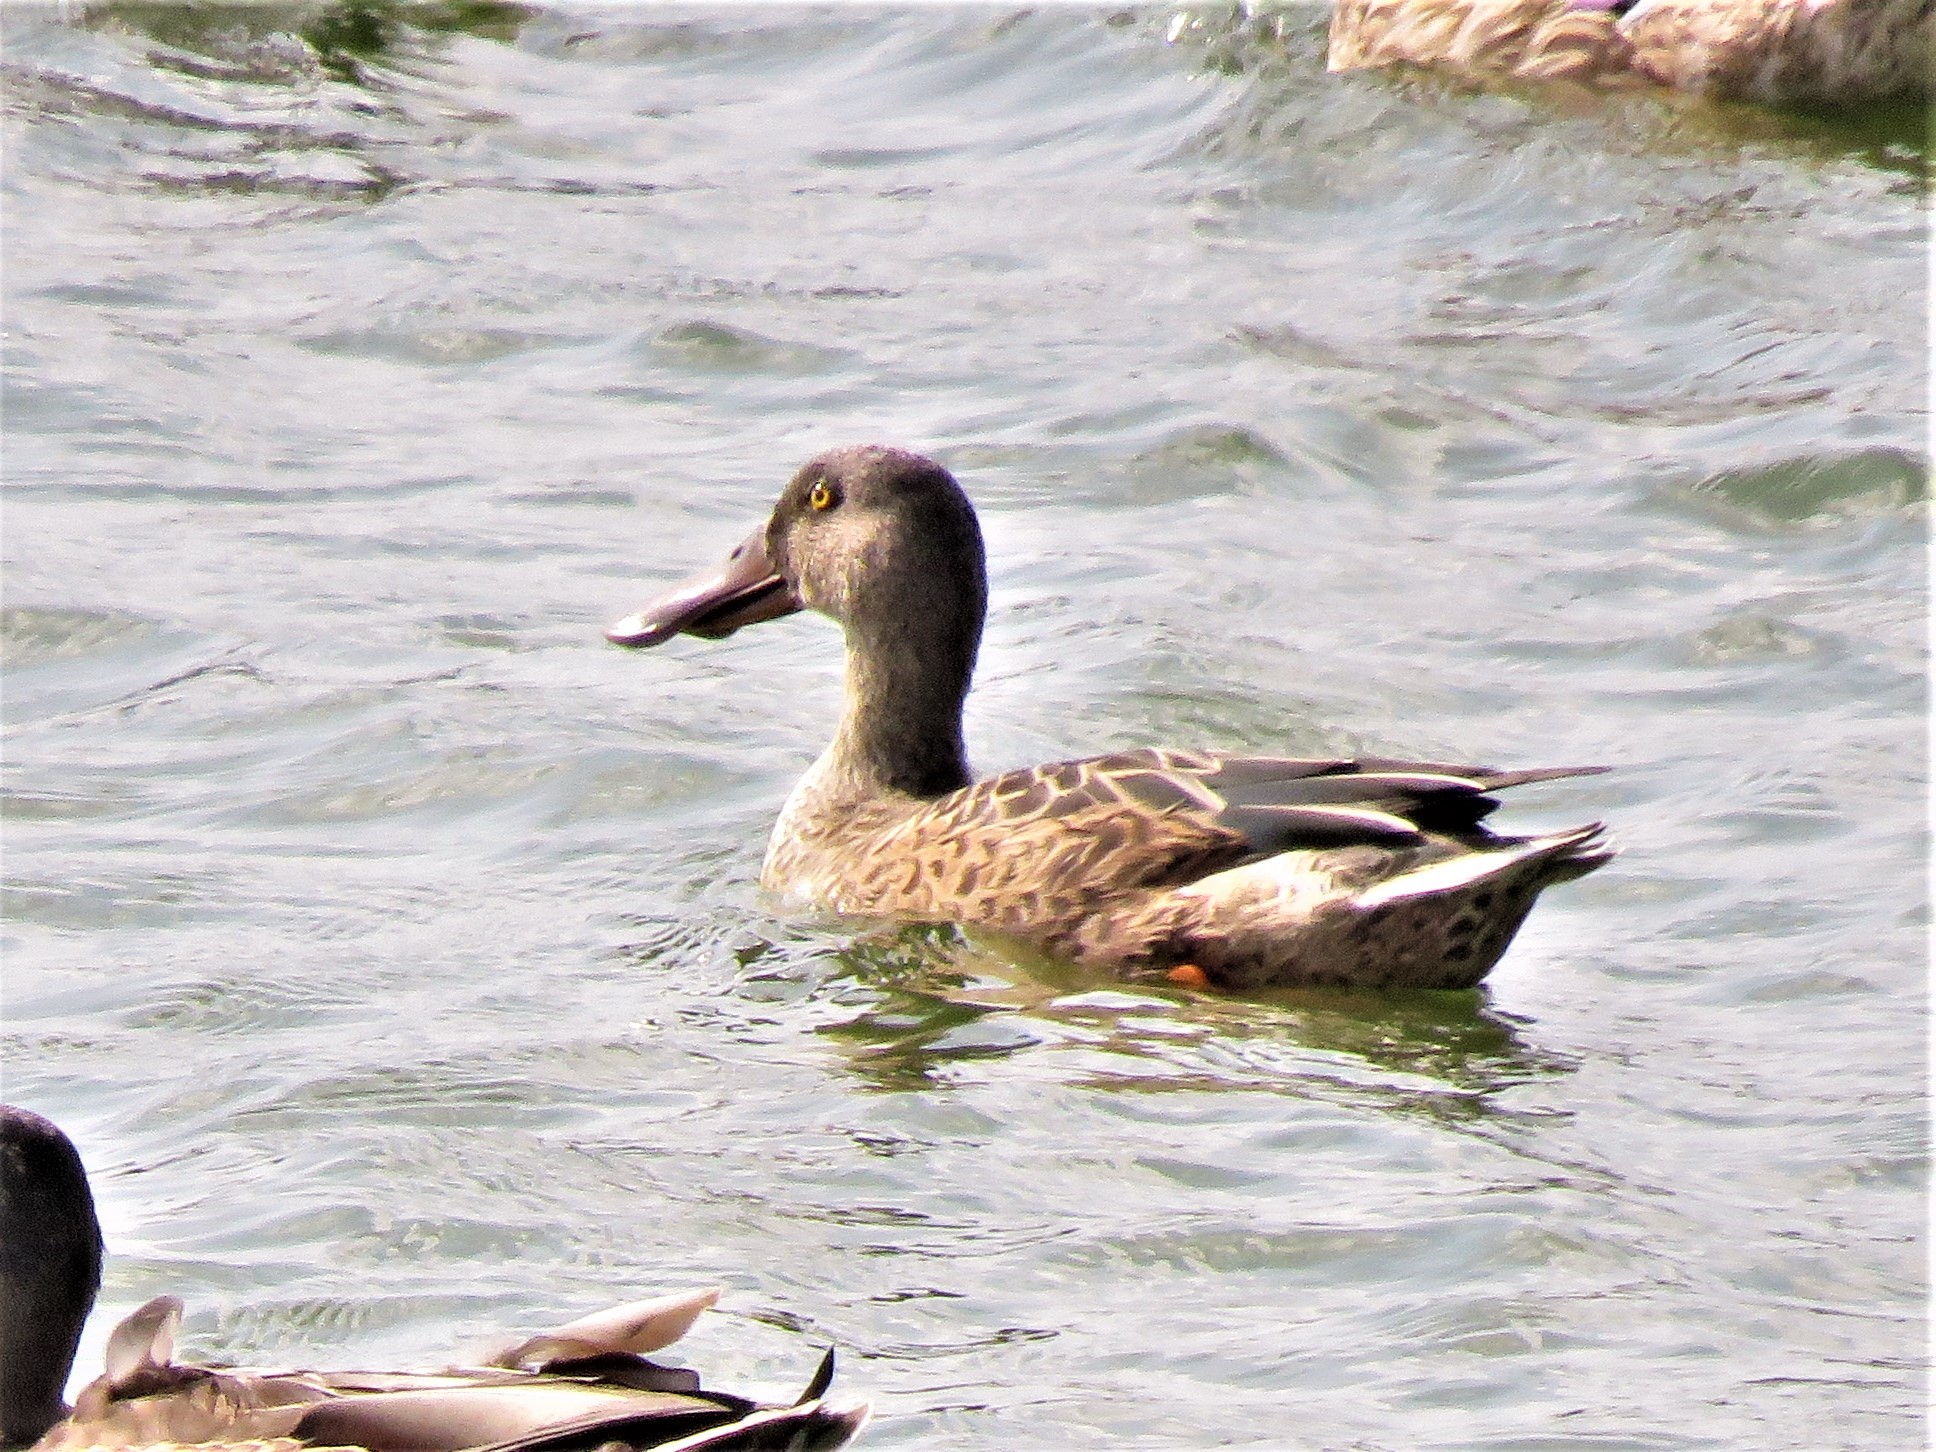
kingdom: Animalia
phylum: Chordata
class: Aves
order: Anseriformes
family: Anatidae
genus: Spatula
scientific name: Spatula clypeata
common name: Northern shoveler
